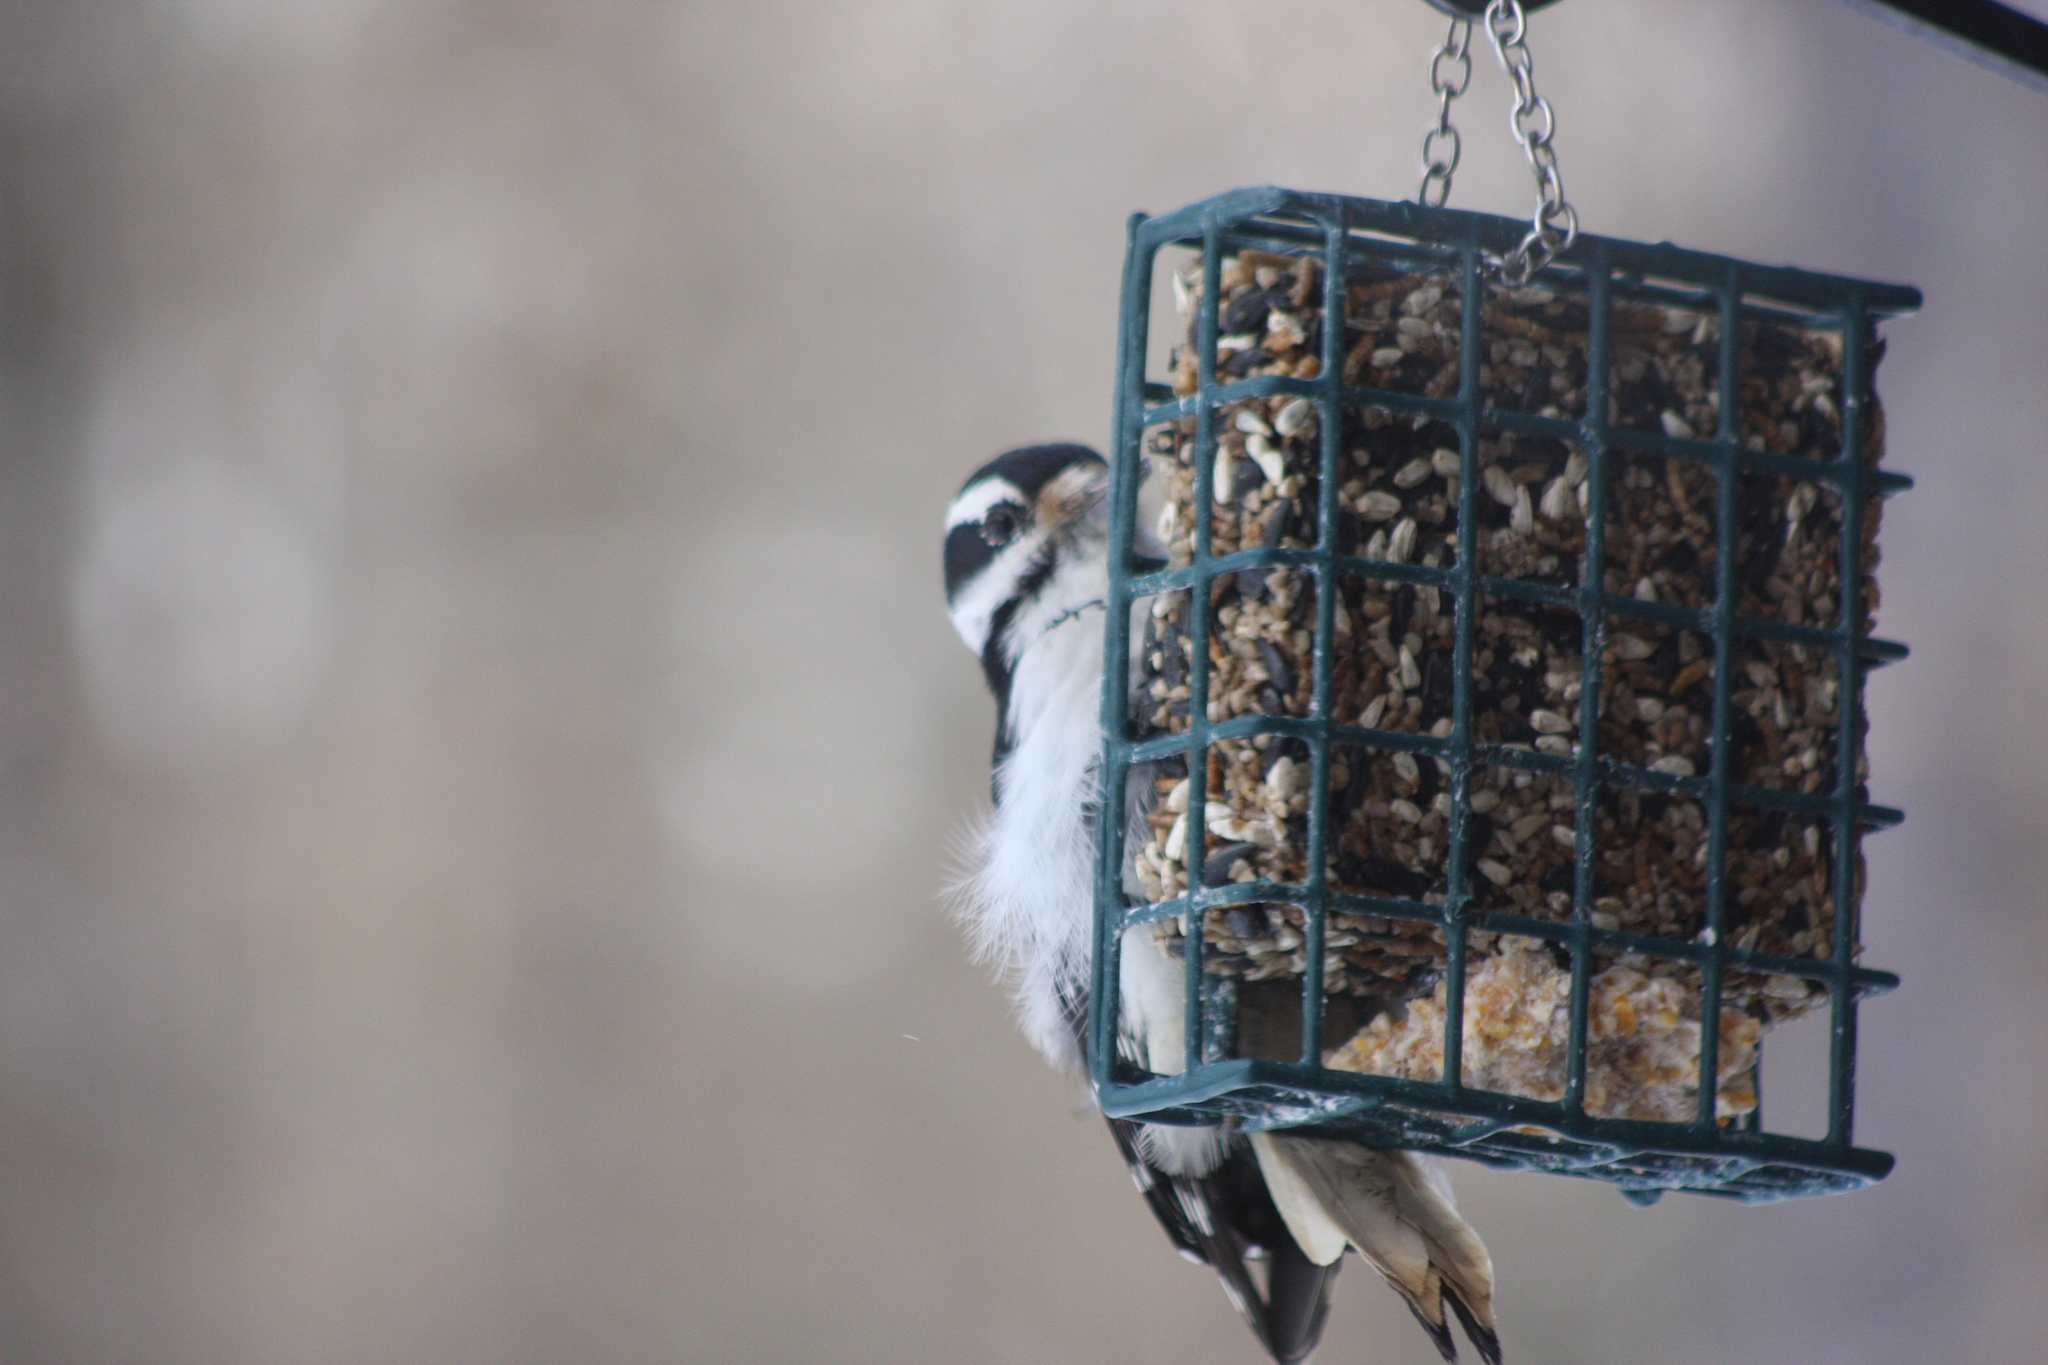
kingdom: Animalia
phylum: Chordata
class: Aves
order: Piciformes
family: Picidae
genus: Dryobates
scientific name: Dryobates pubescens
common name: Downy woodpecker
